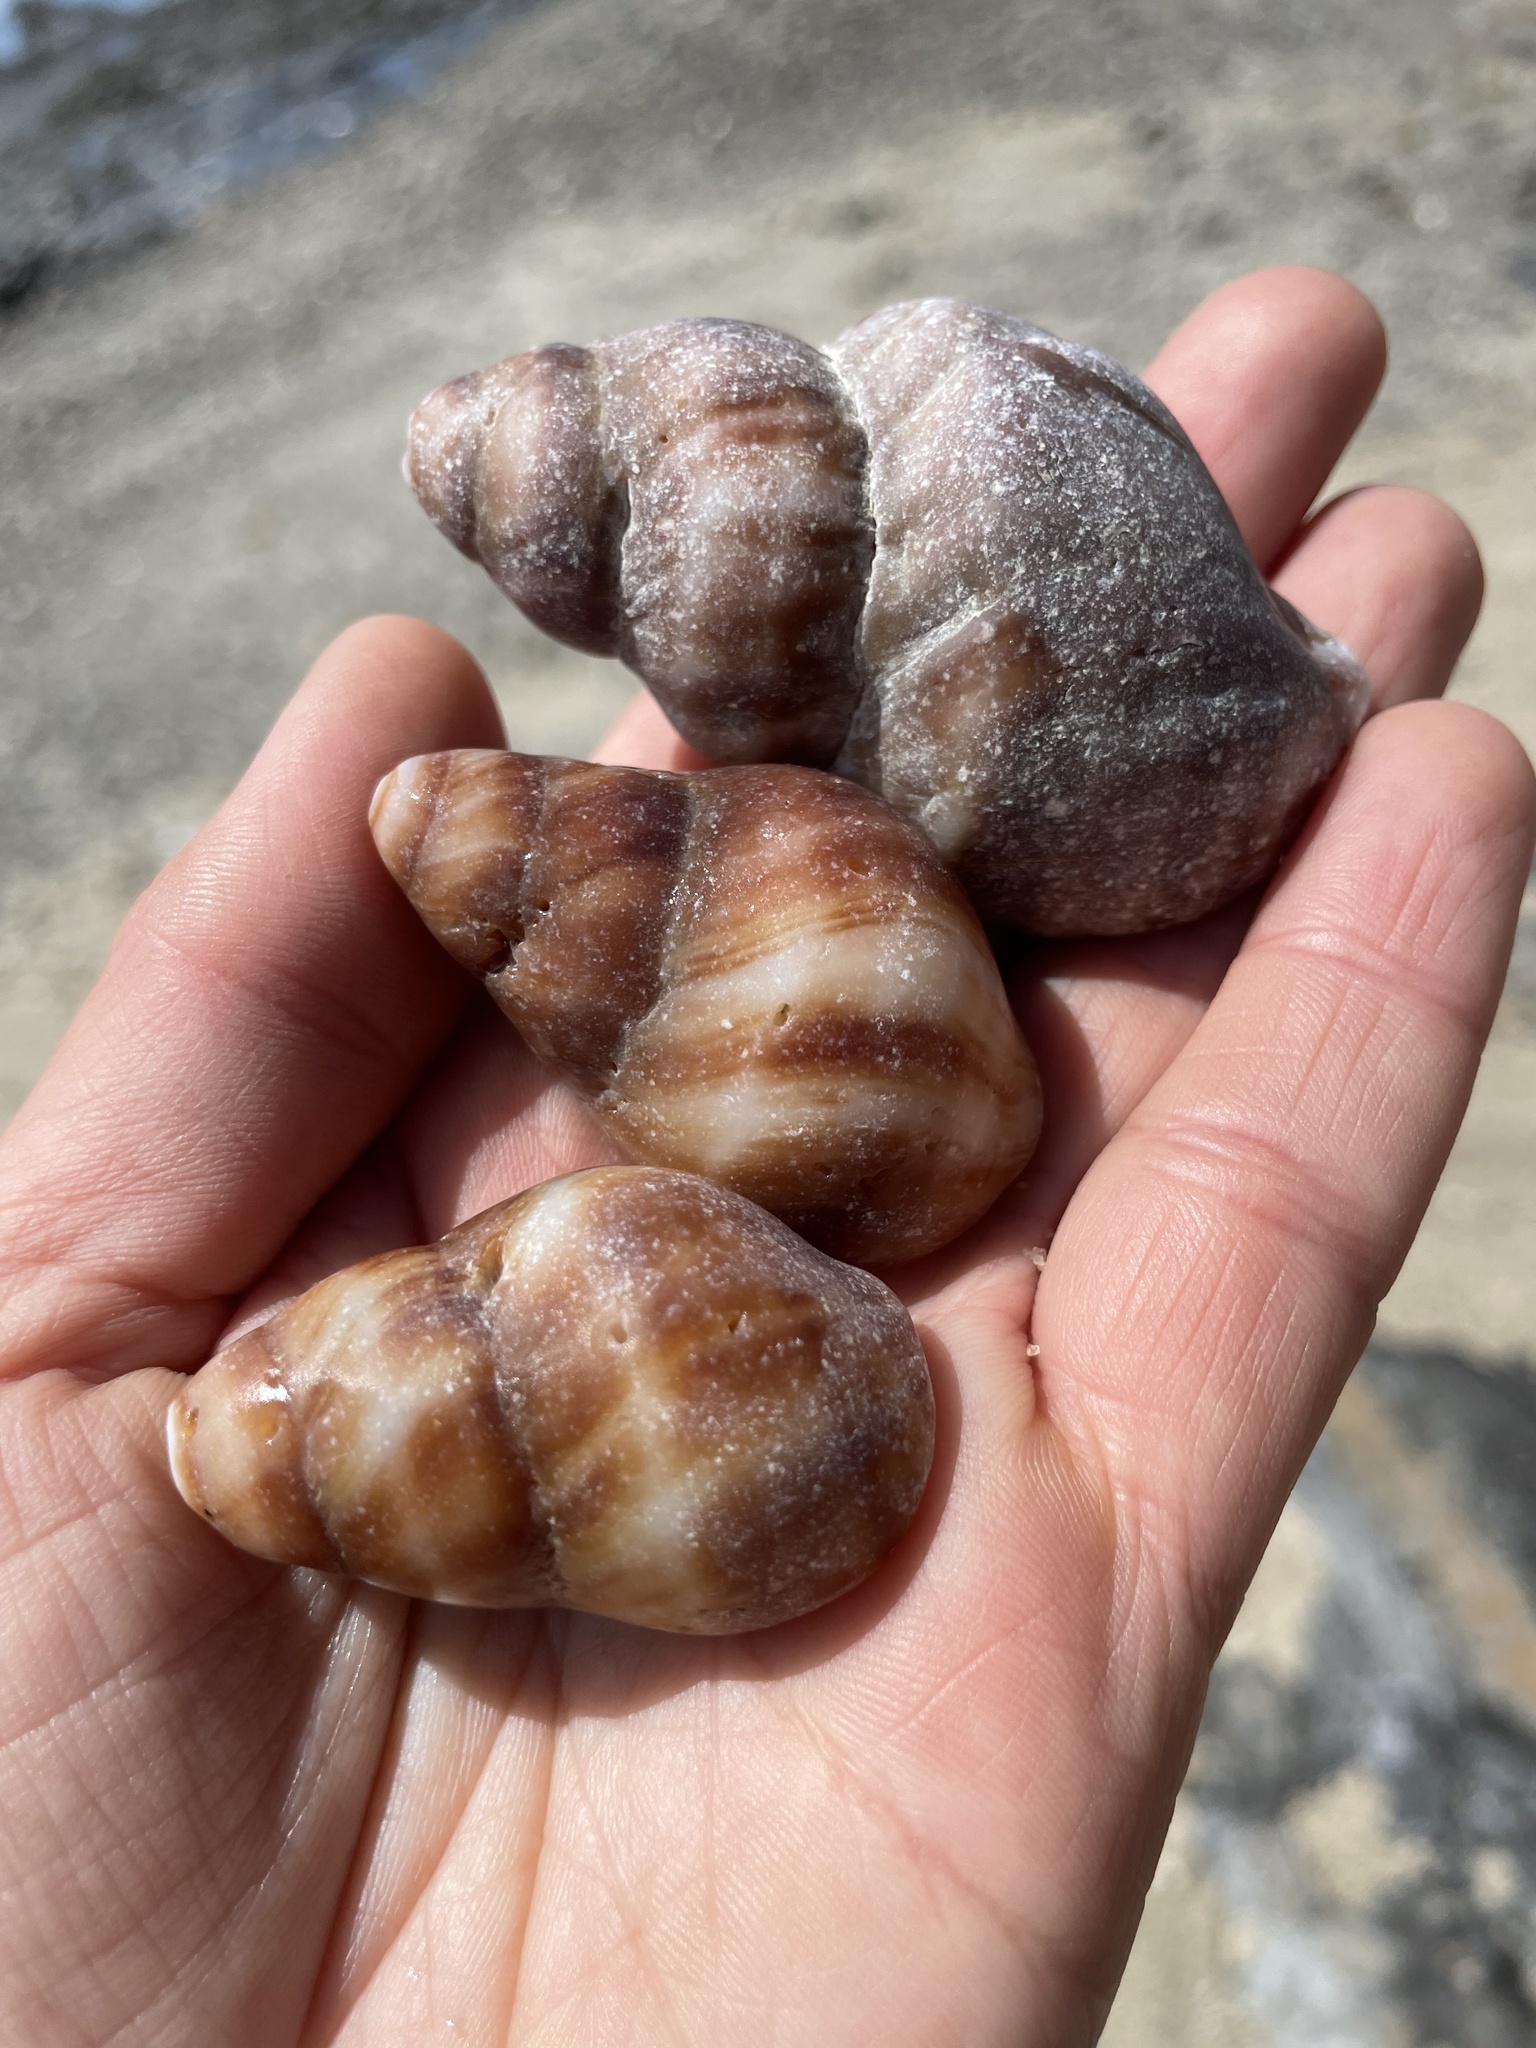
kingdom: Animalia
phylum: Mollusca
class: Gastropoda
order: Neogastropoda
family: Muricidae
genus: Nucella
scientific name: Nucella lamellosa
